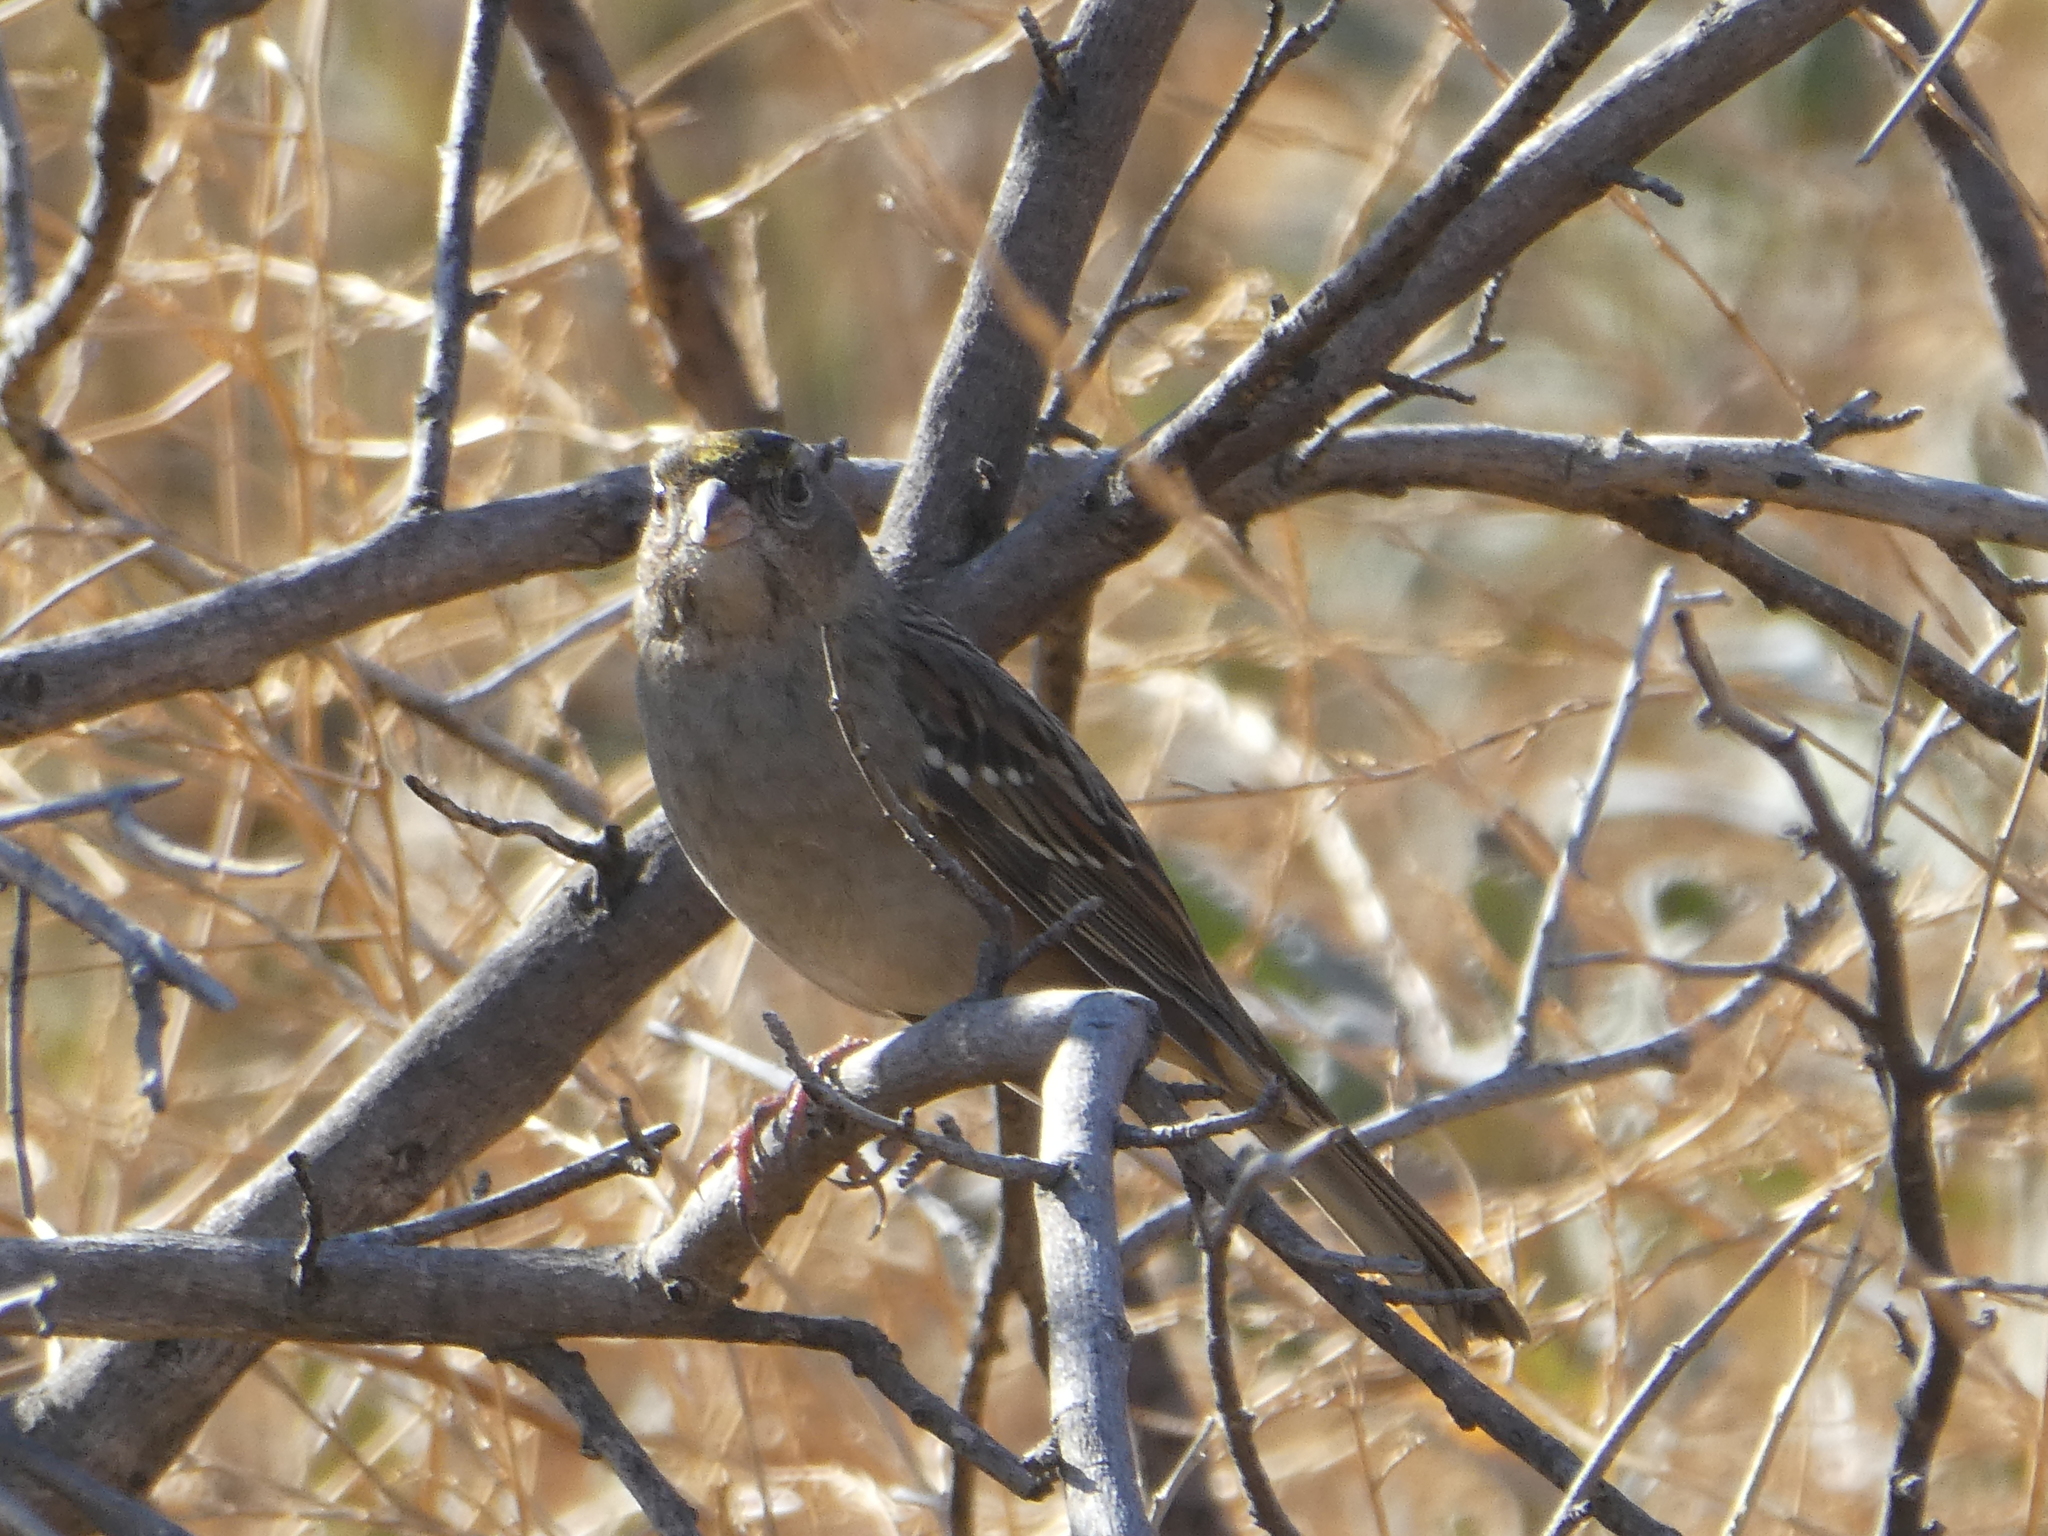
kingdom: Animalia
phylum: Chordata
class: Aves
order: Passeriformes
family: Passerellidae
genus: Zonotrichia
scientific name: Zonotrichia atricapilla
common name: Golden-crowned sparrow
